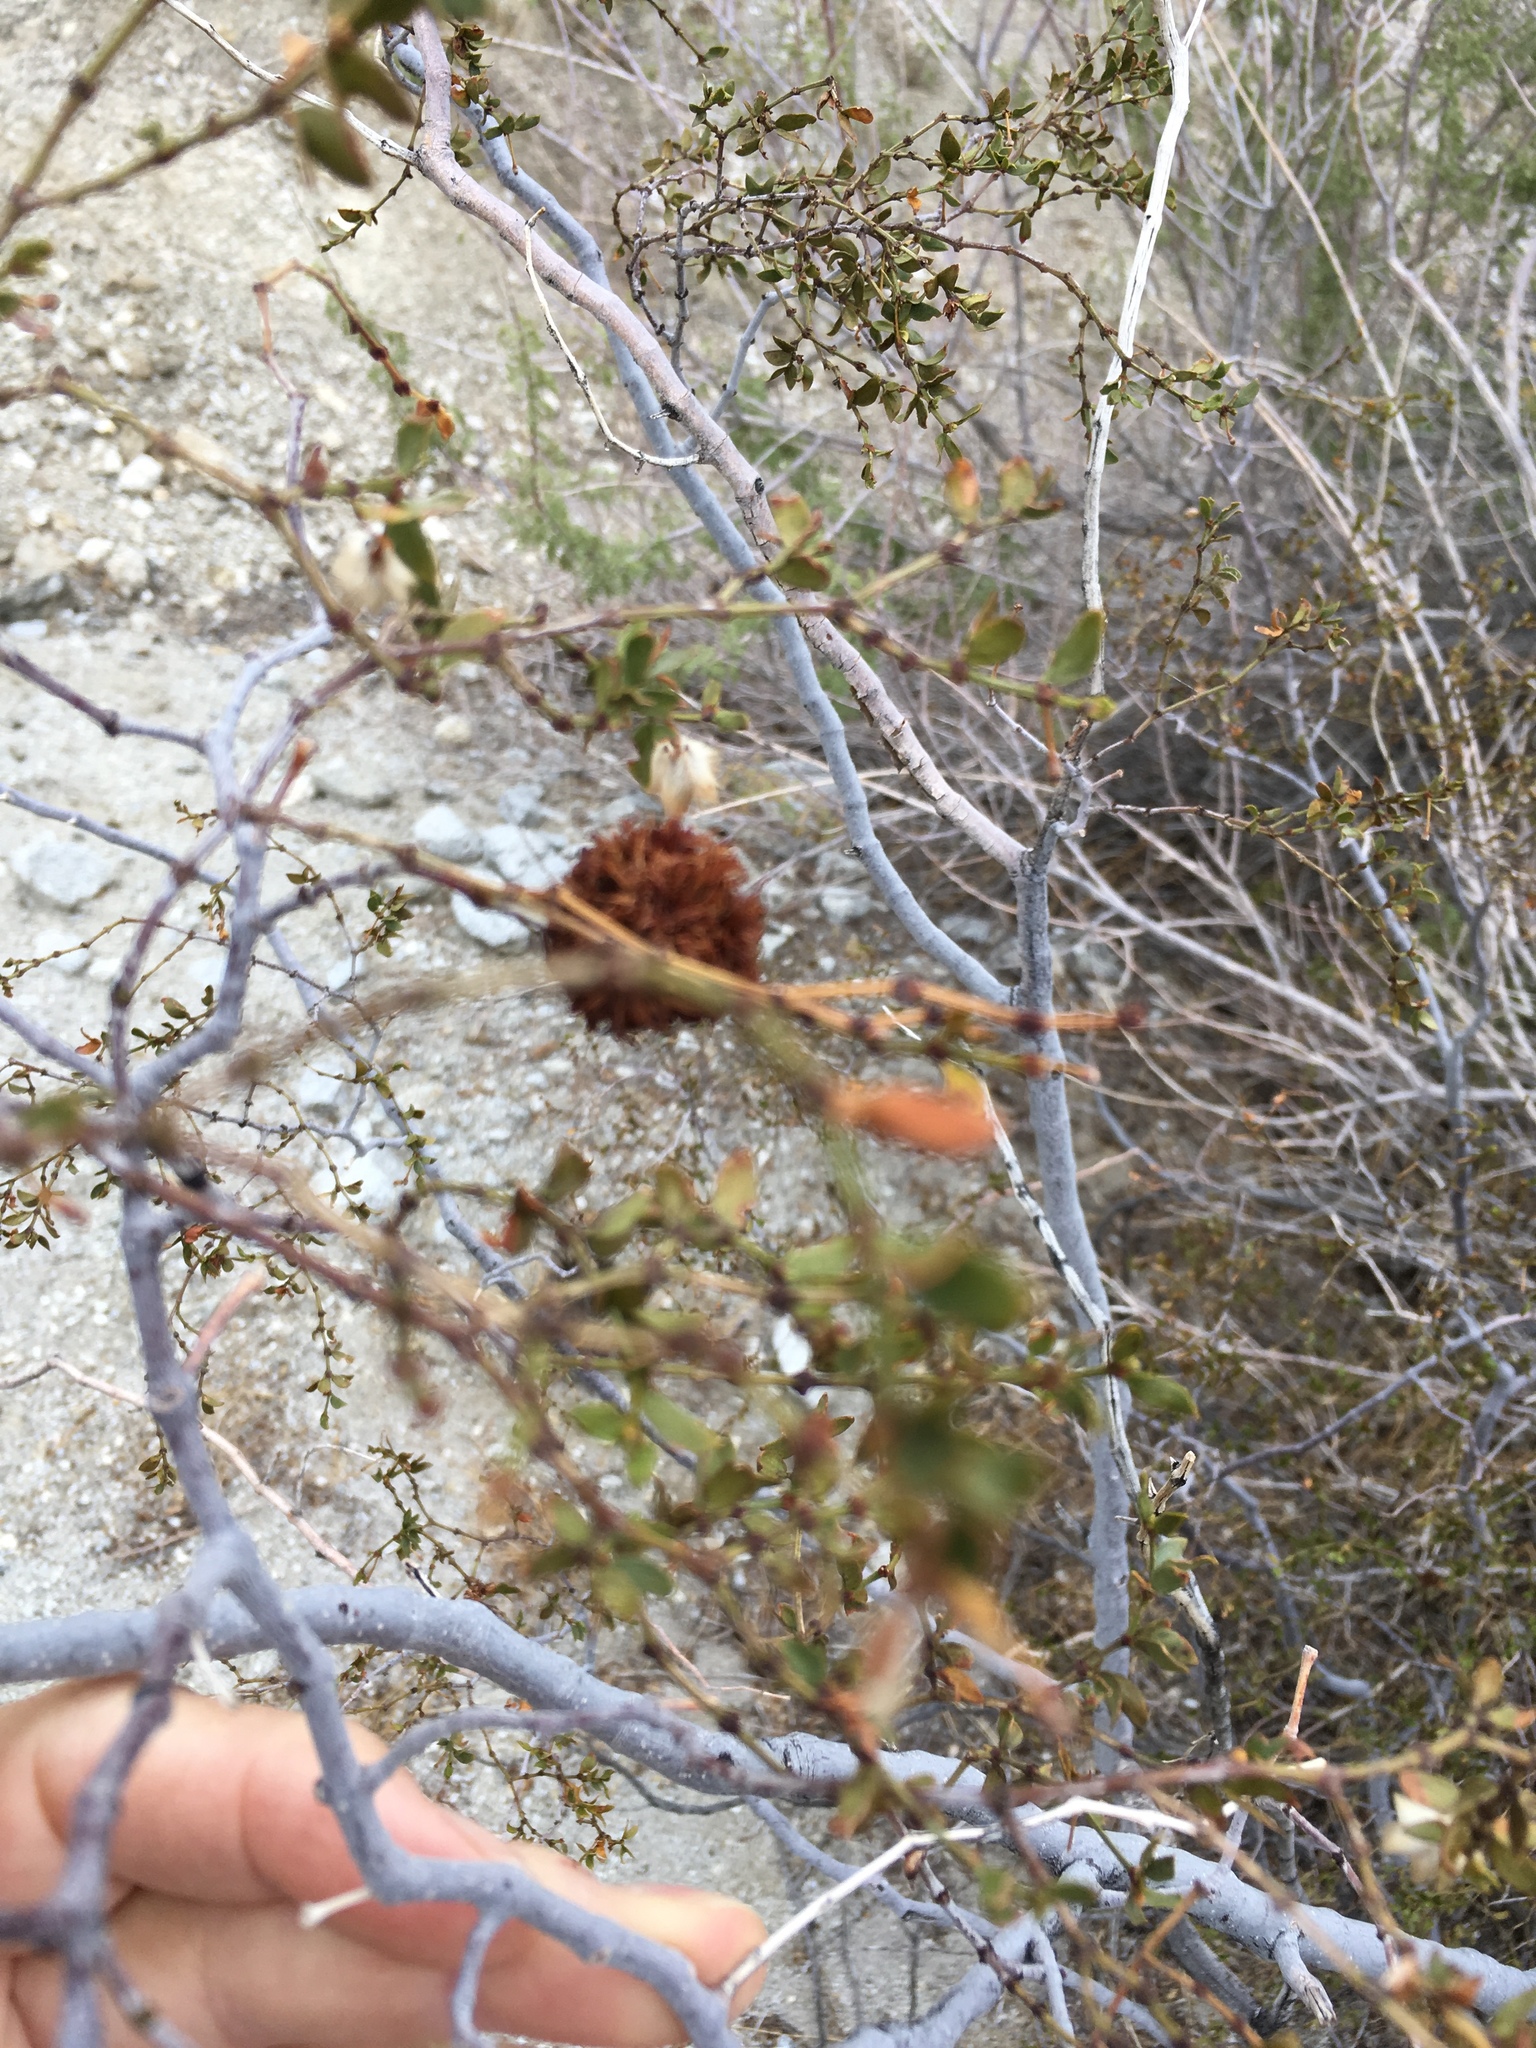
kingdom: Animalia
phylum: Arthropoda
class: Insecta
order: Diptera
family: Cecidomyiidae
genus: Asphondylia
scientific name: Asphondylia auripila
